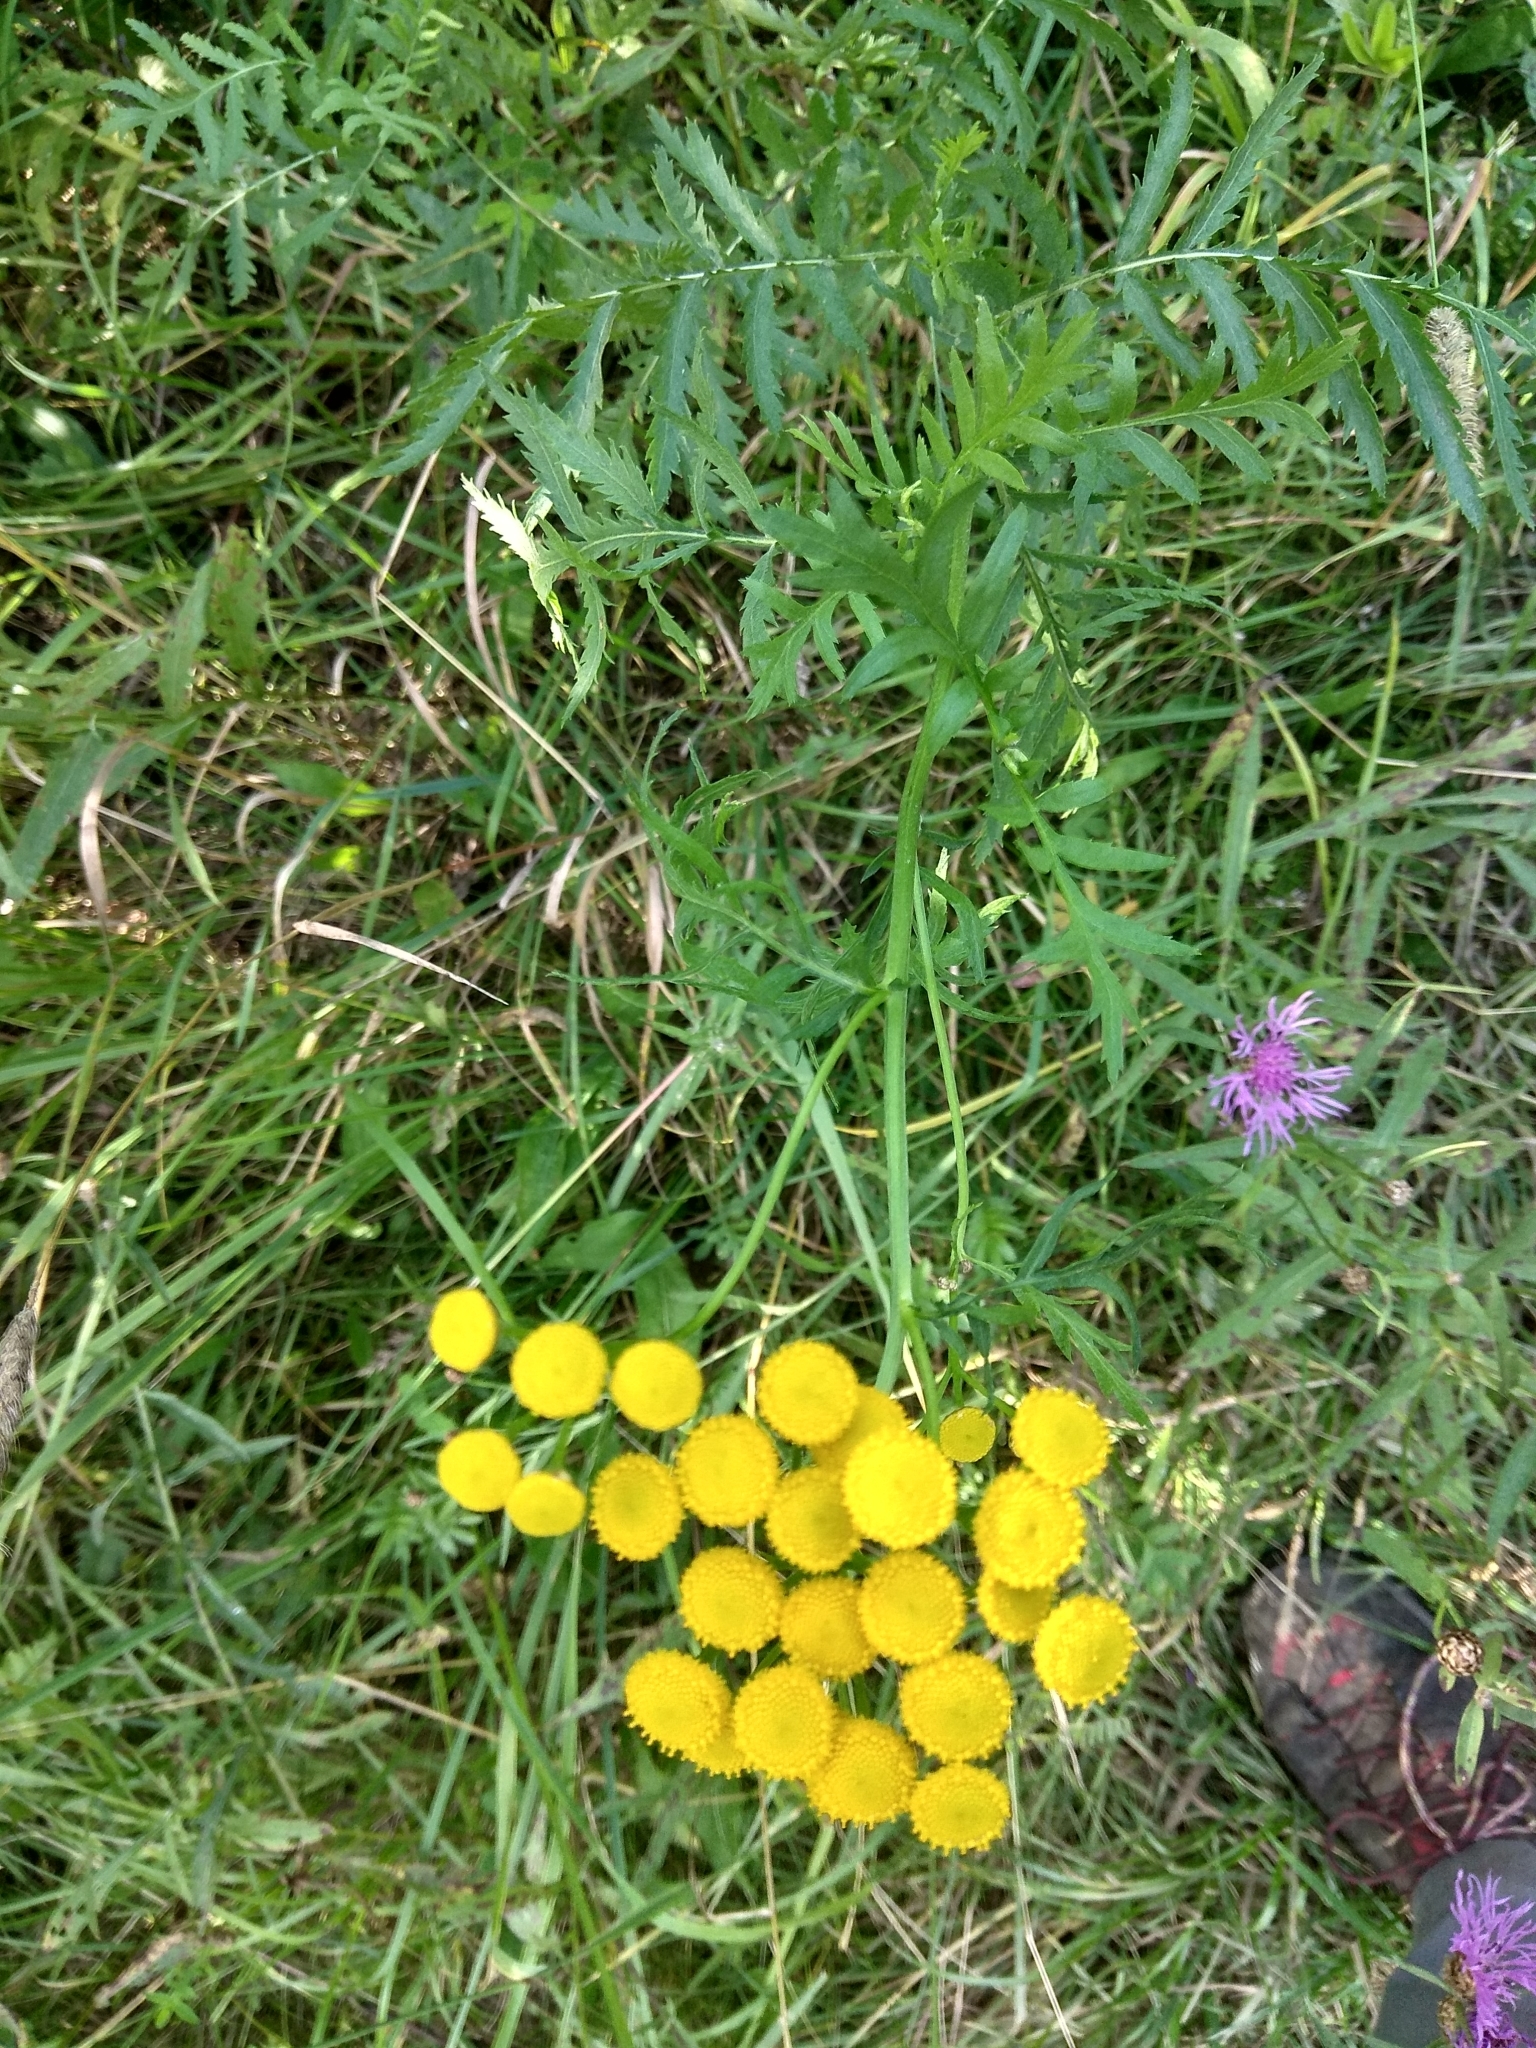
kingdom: Plantae
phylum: Tracheophyta
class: Magnoliopsida
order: Asterales
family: Asteraceae
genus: Tanacetum
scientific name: Tanacetum vulgare
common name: Common tansy
